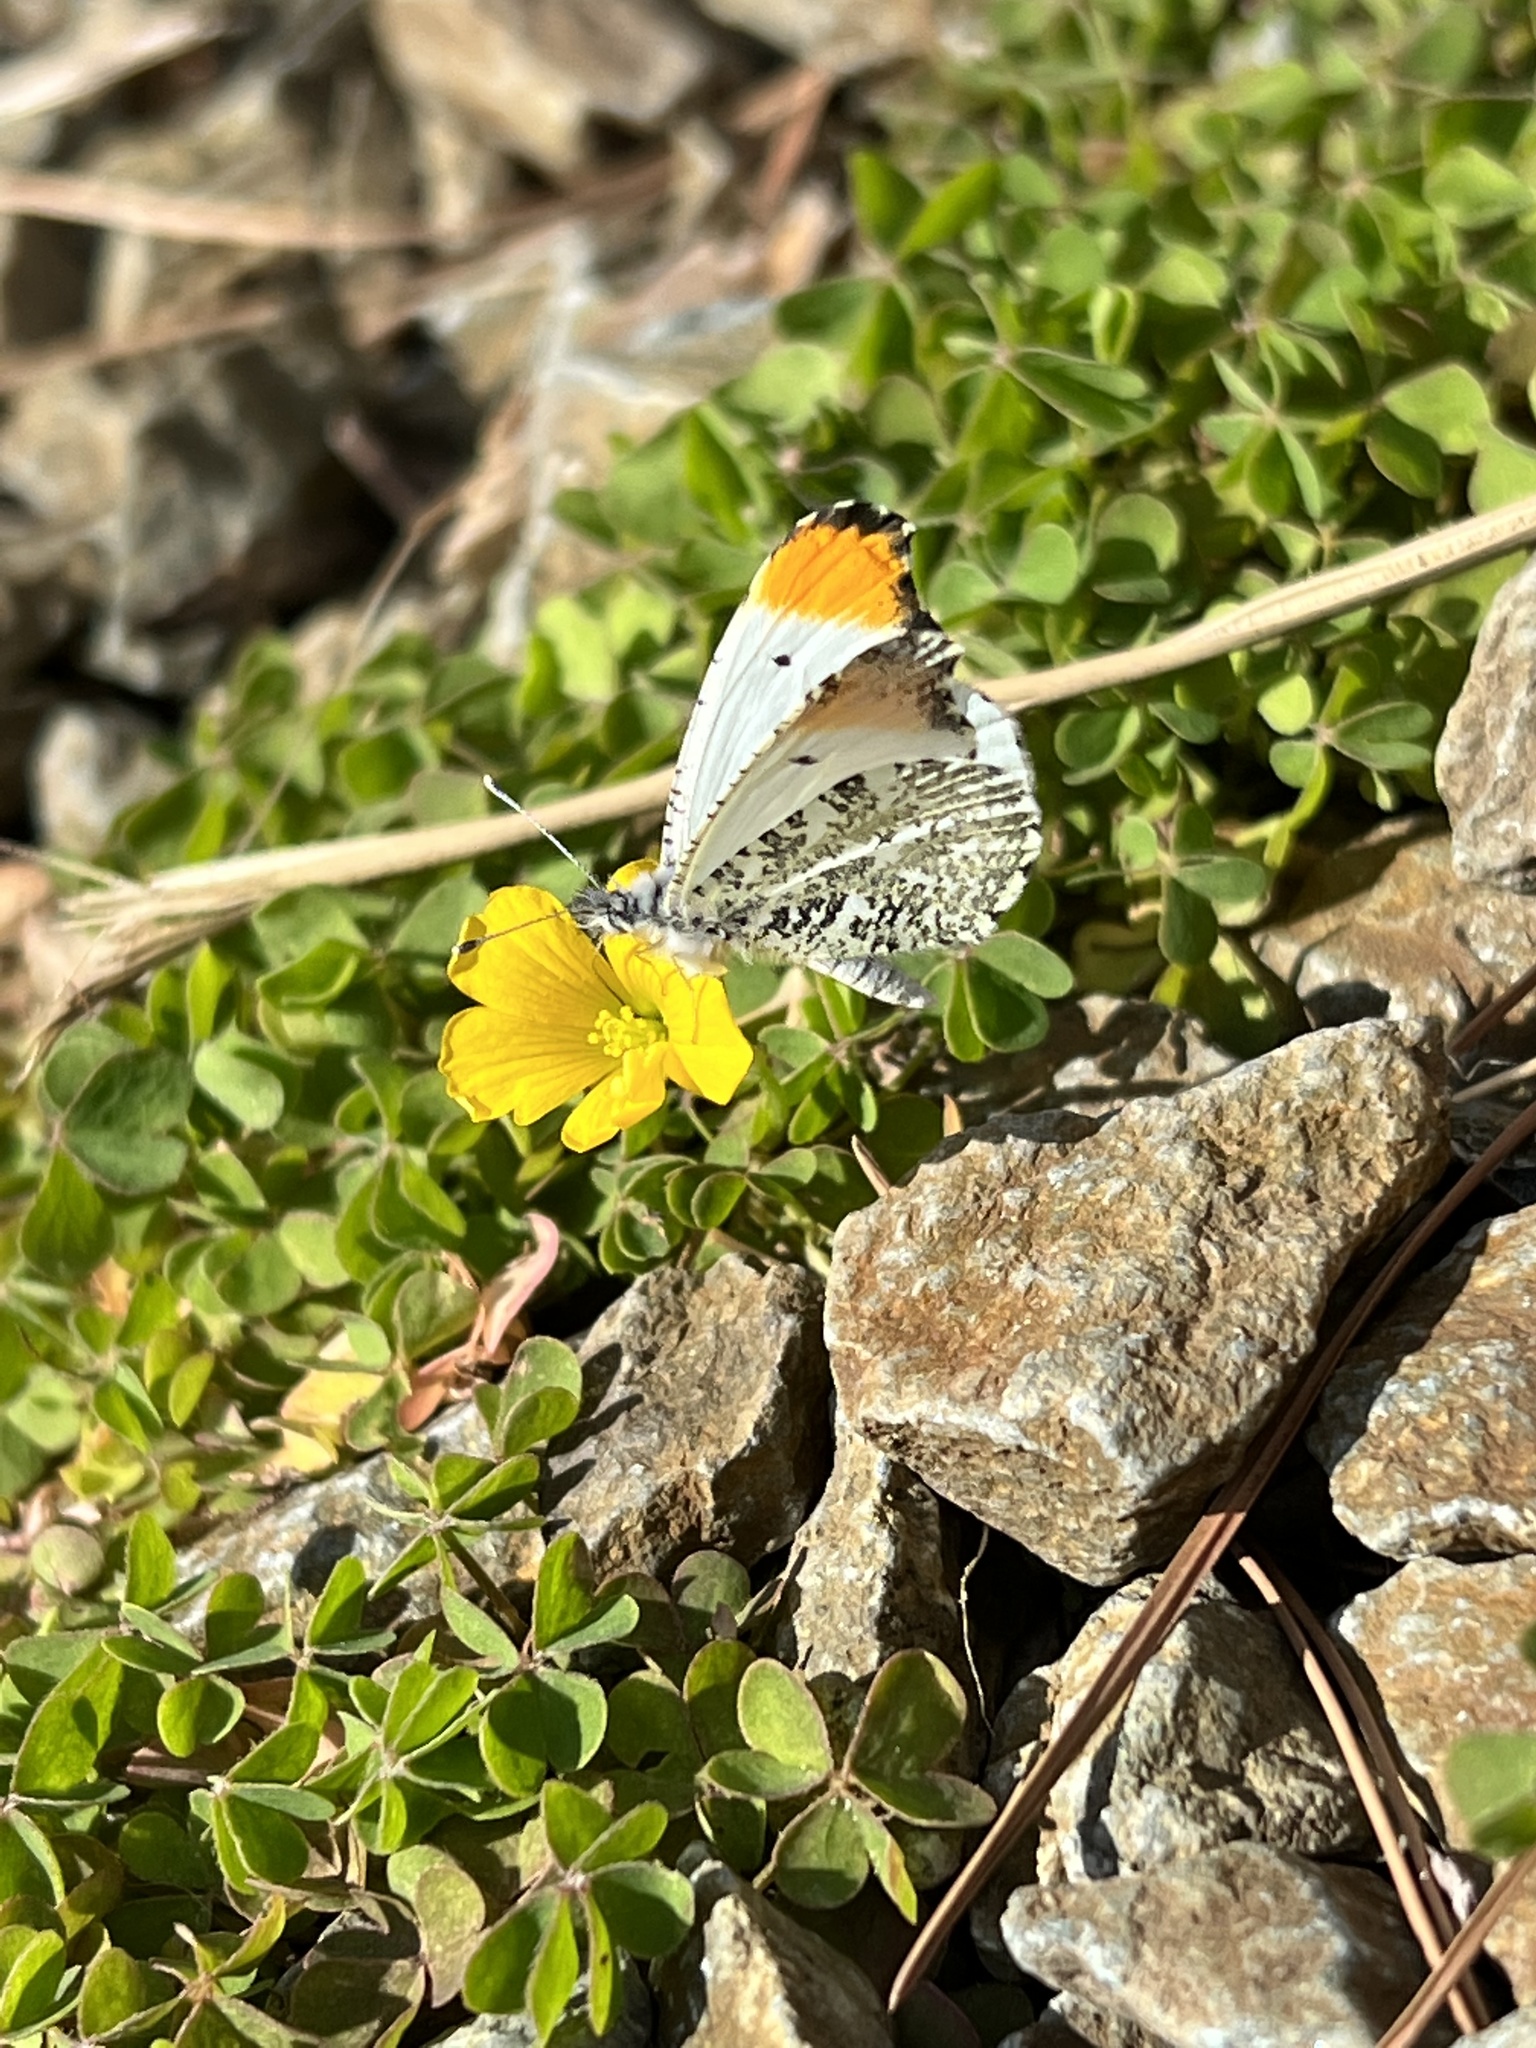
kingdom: Animalia
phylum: Arthropoda
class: Insecta
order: Lepidoptera
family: Pieridae
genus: Anthocharis
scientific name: Anthocharis midea
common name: Falcate orangetip
